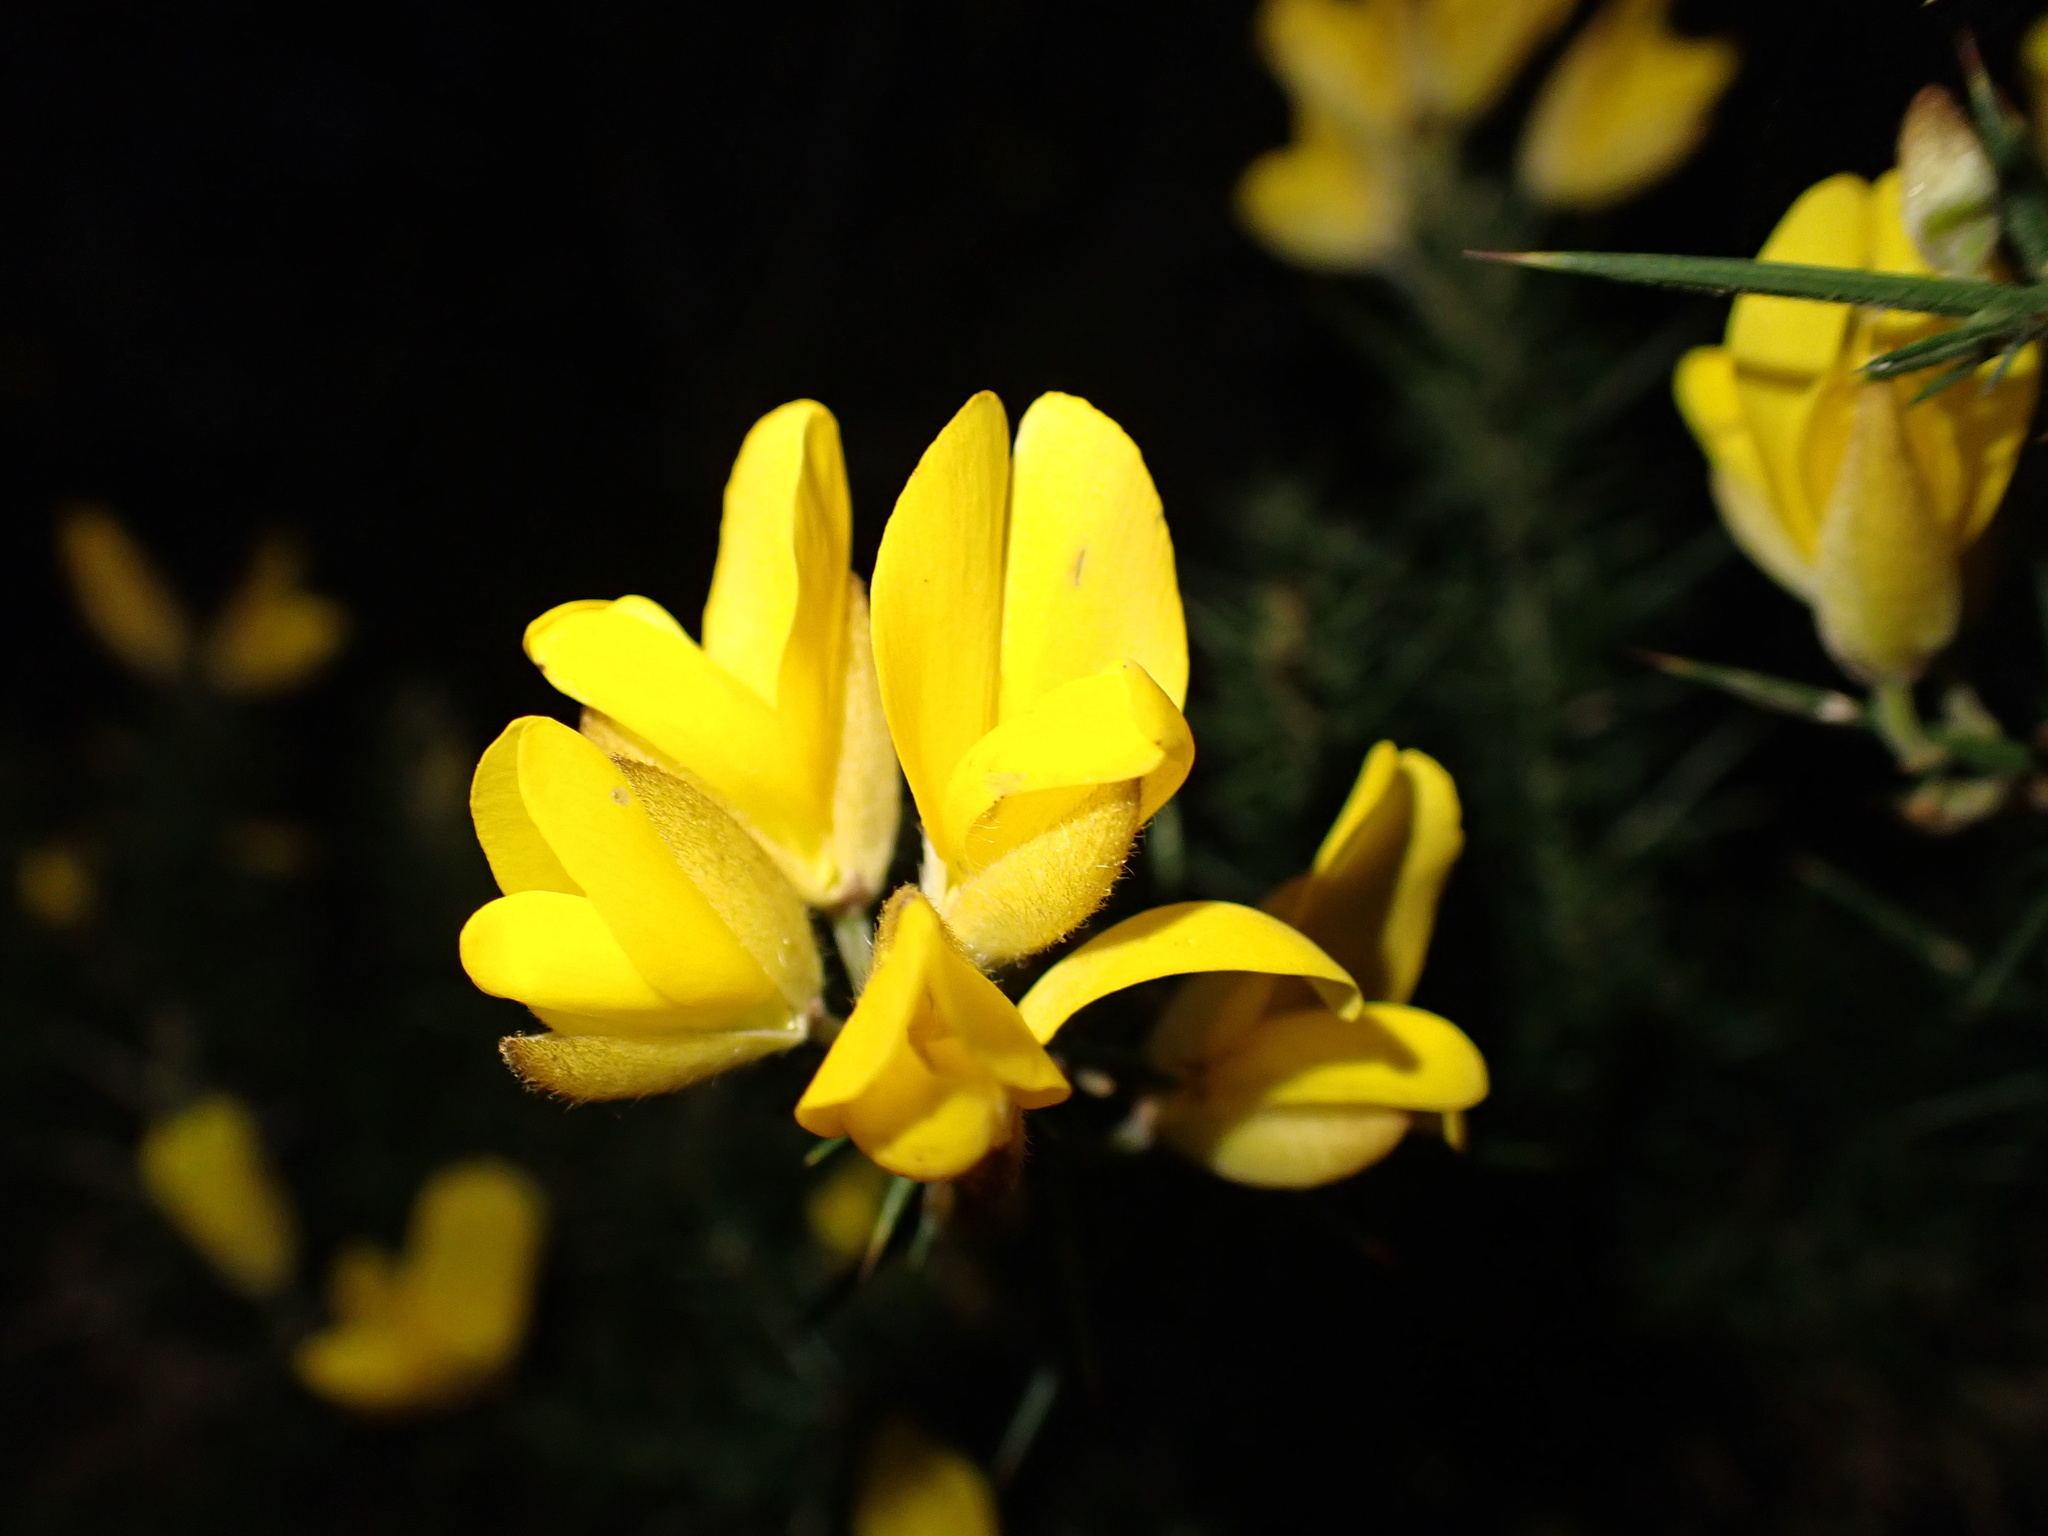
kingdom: Plantae
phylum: Tracheophyta
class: Magnoliopsida
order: Fabales
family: Fabaceae
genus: Ulex
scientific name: Ulex europaeus
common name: Common gorse
